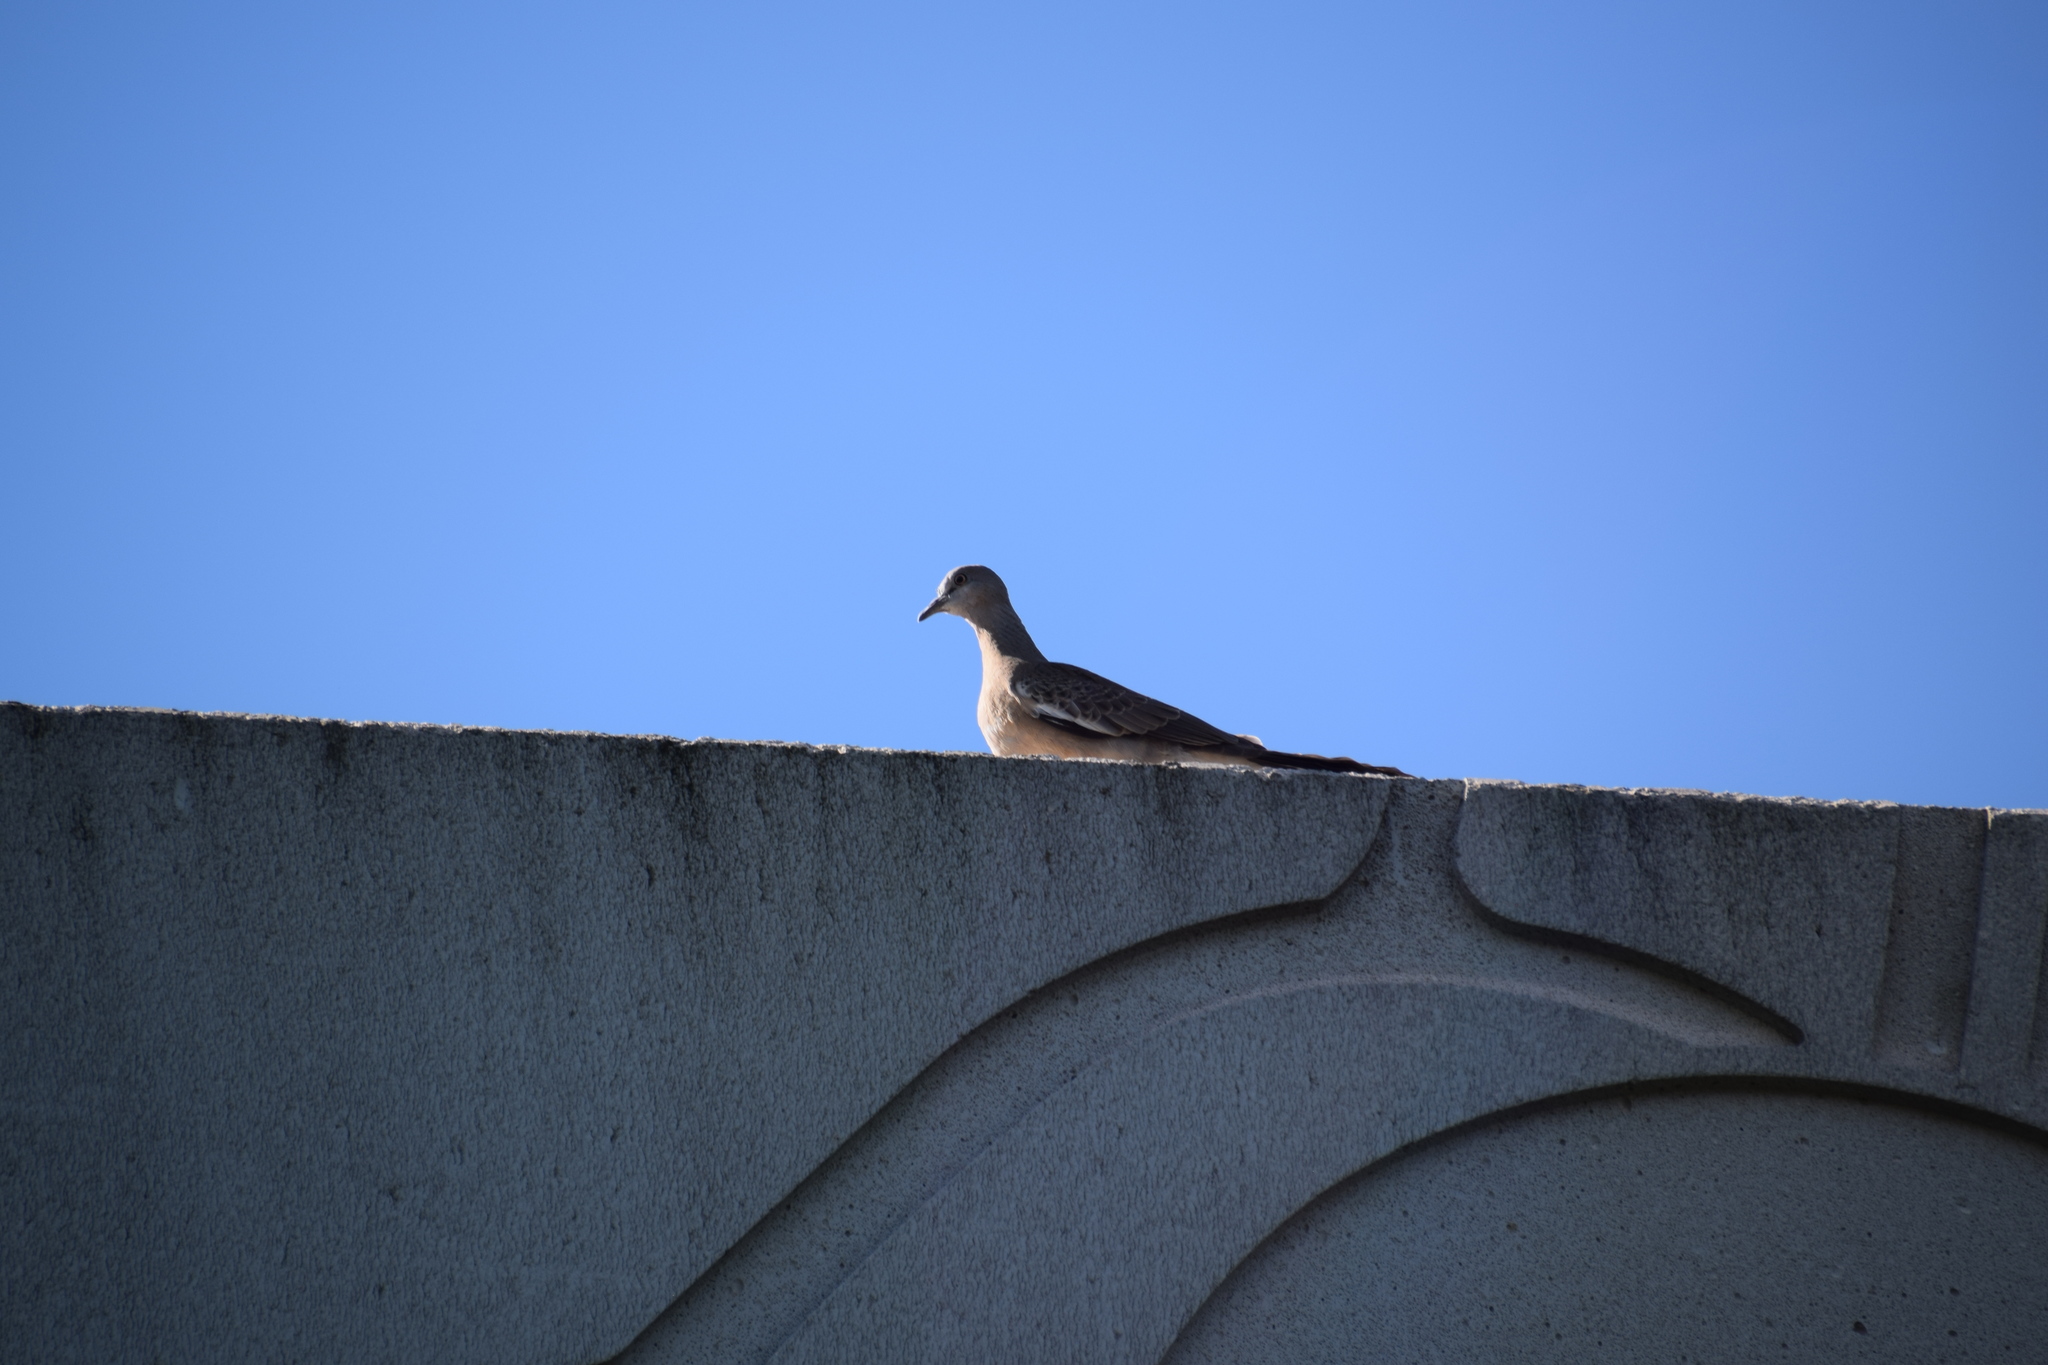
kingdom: Animalia
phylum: Chordata
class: Aves
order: Columbiformes
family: Columbidae
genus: Spilopelia
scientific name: Spilopelia chinensis
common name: Spotted dove
